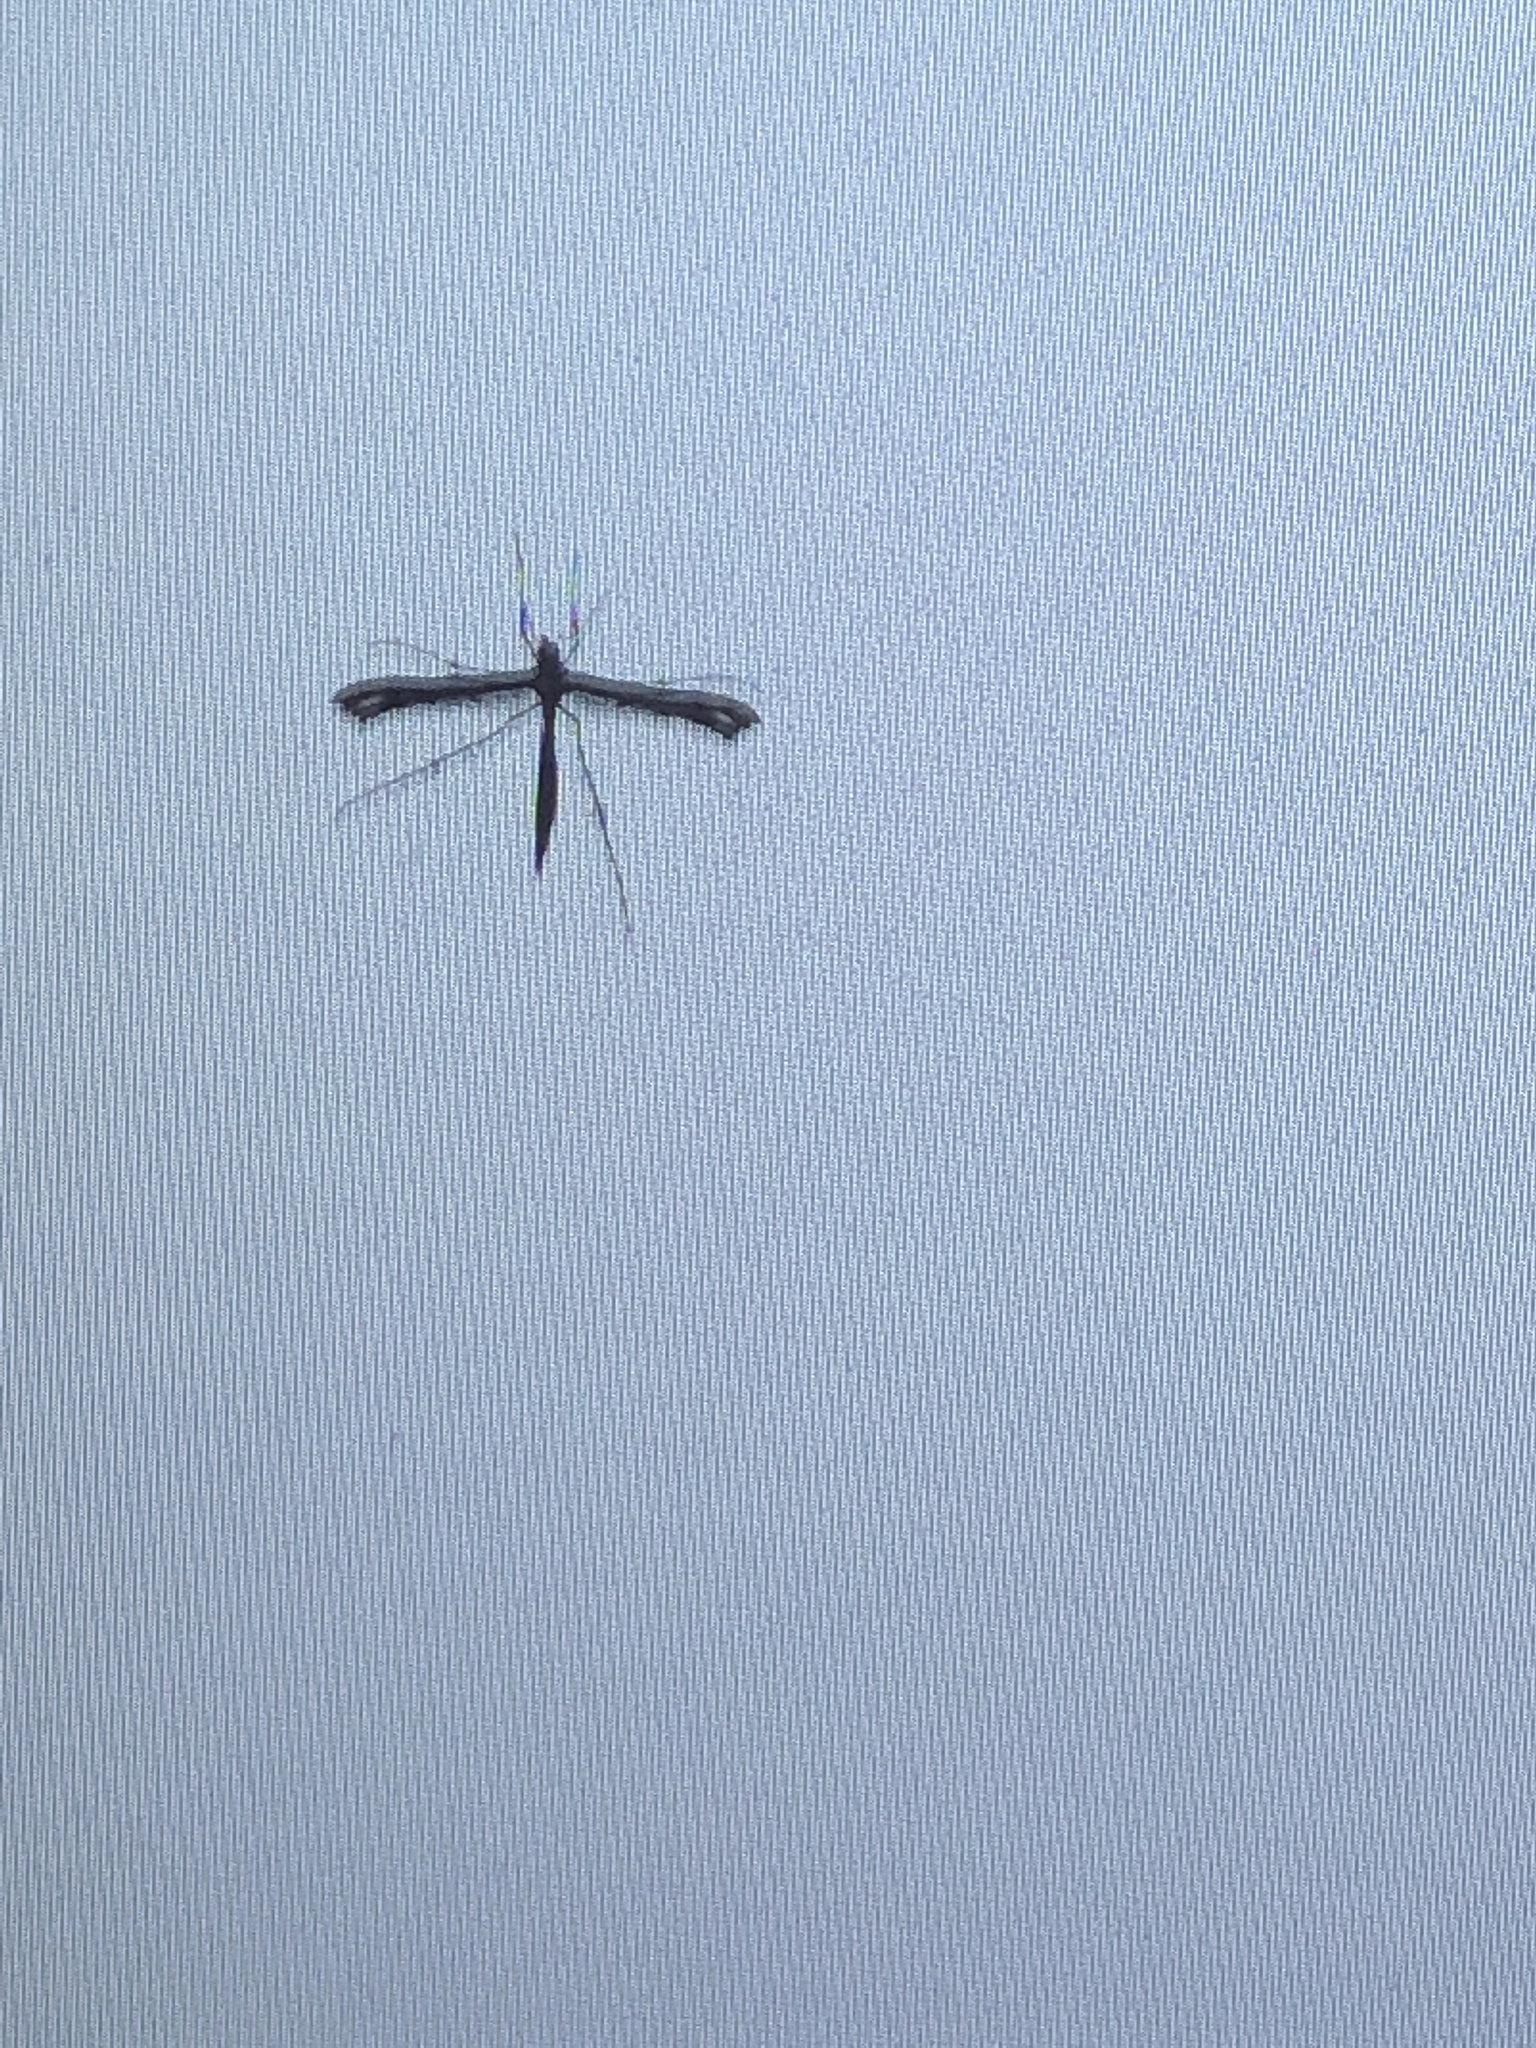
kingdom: Animalia
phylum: Arthropoda
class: Insecta
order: Lepidoptera
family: Pterophoridae
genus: Anstenoptilia
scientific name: Anstenoptilia marmarodactyla
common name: Moth
